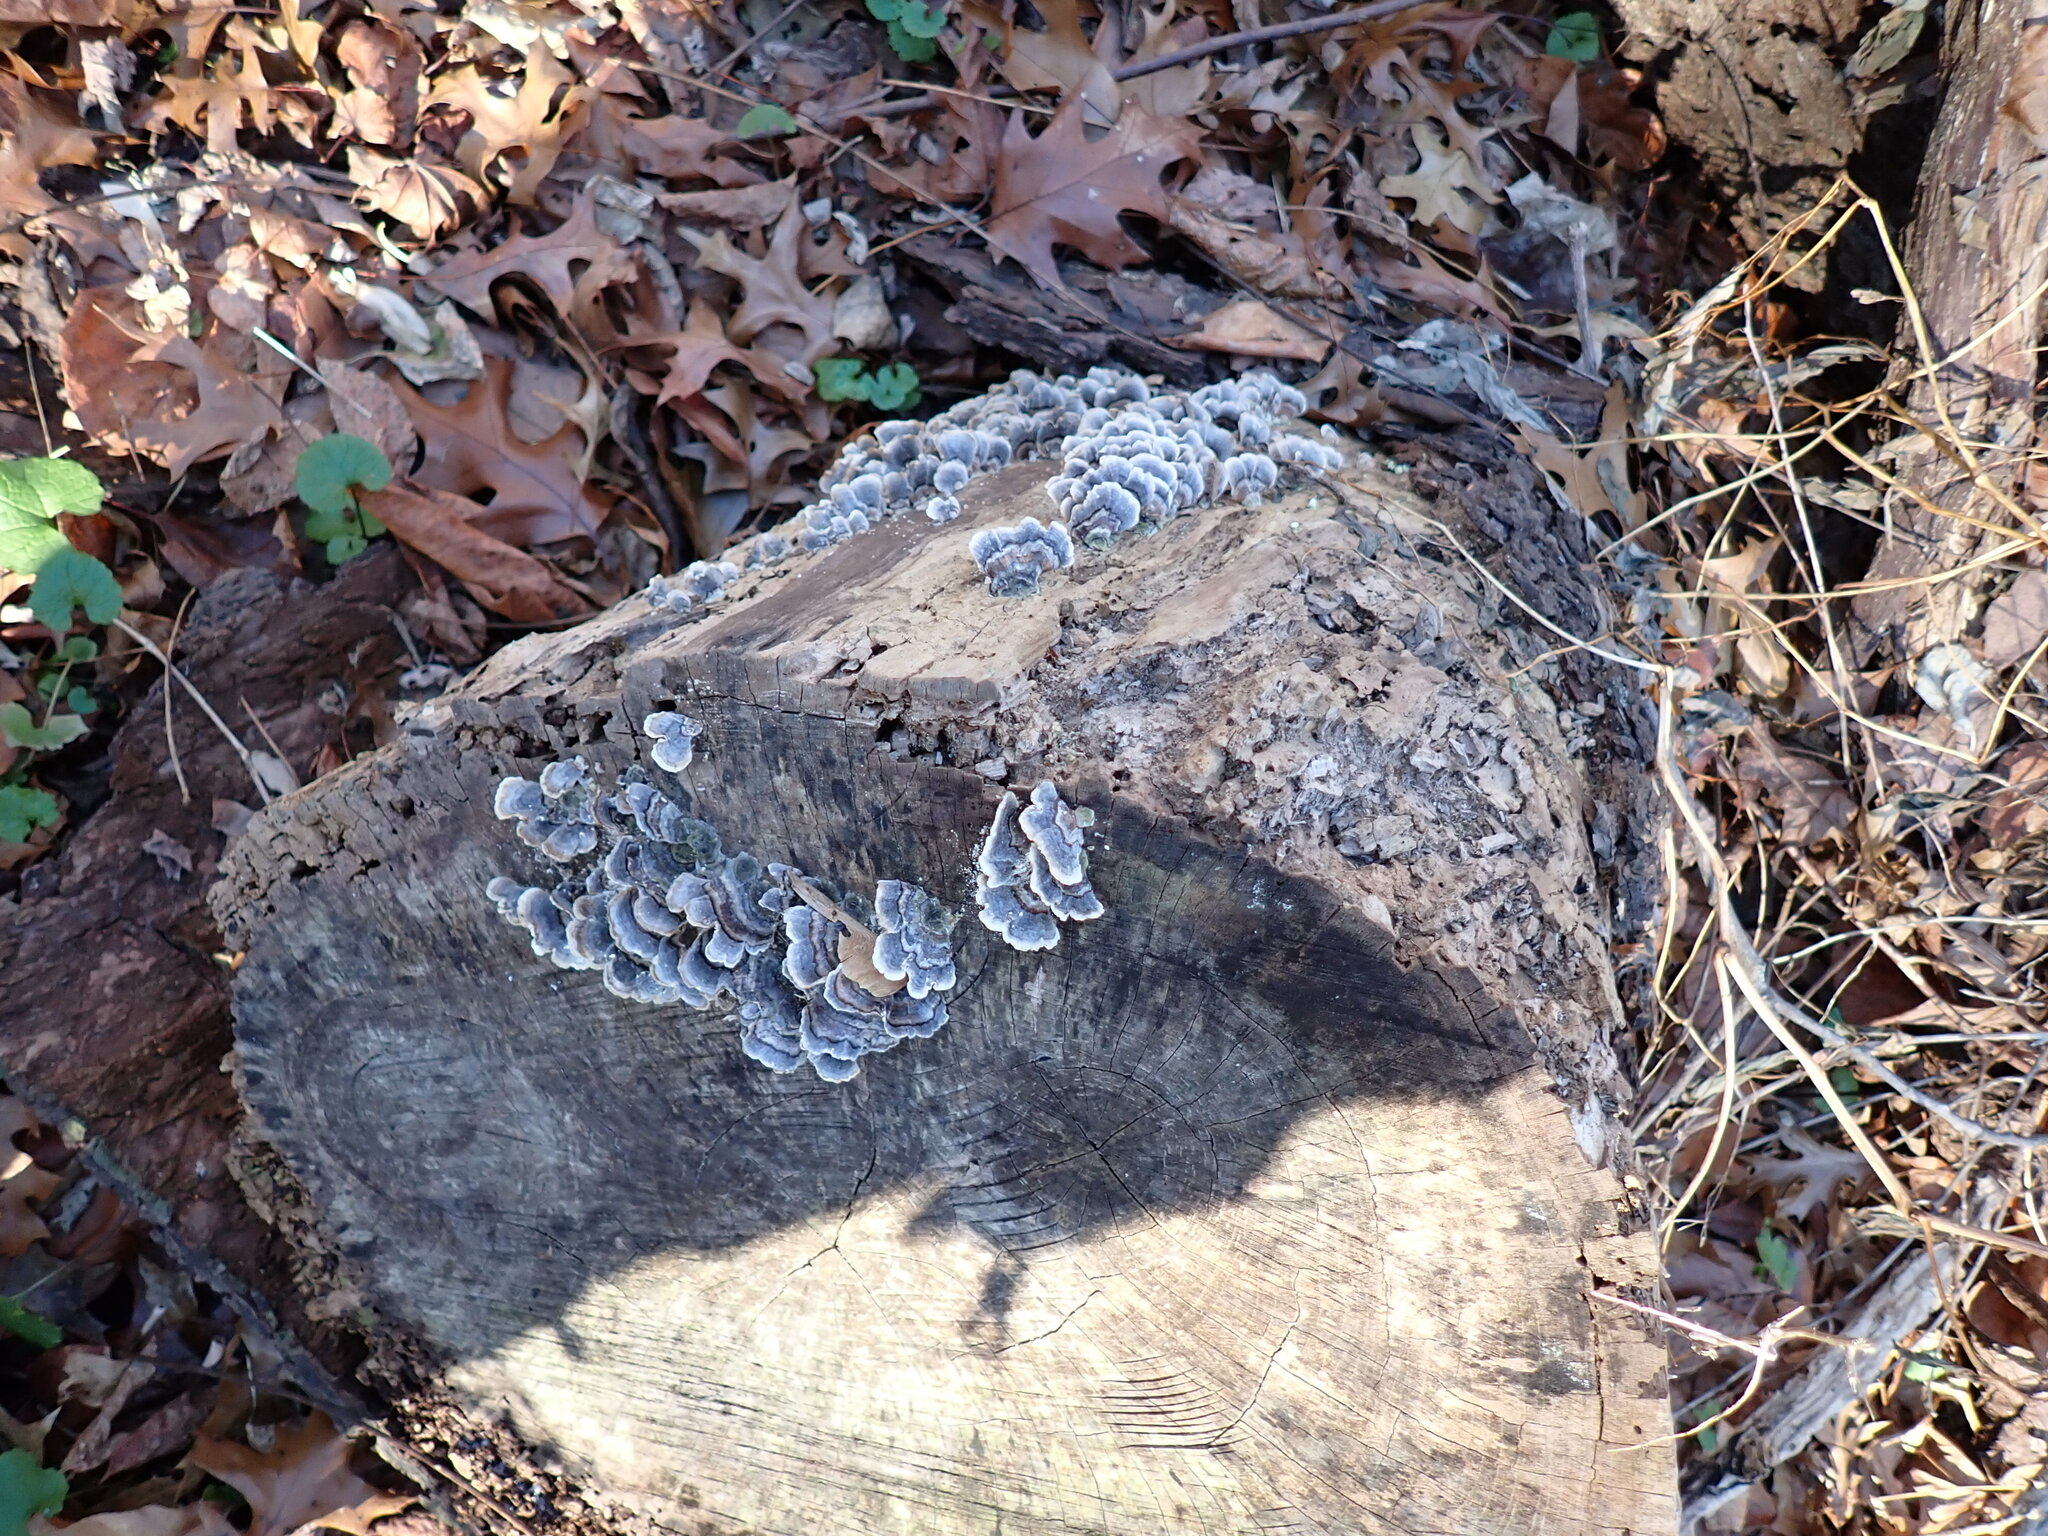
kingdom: Fungi
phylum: Basidiomycota
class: Agaricomycetes
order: Polyporales
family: Polyporaceae
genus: Trametes
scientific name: Trametes versicolor
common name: Turkeytail
